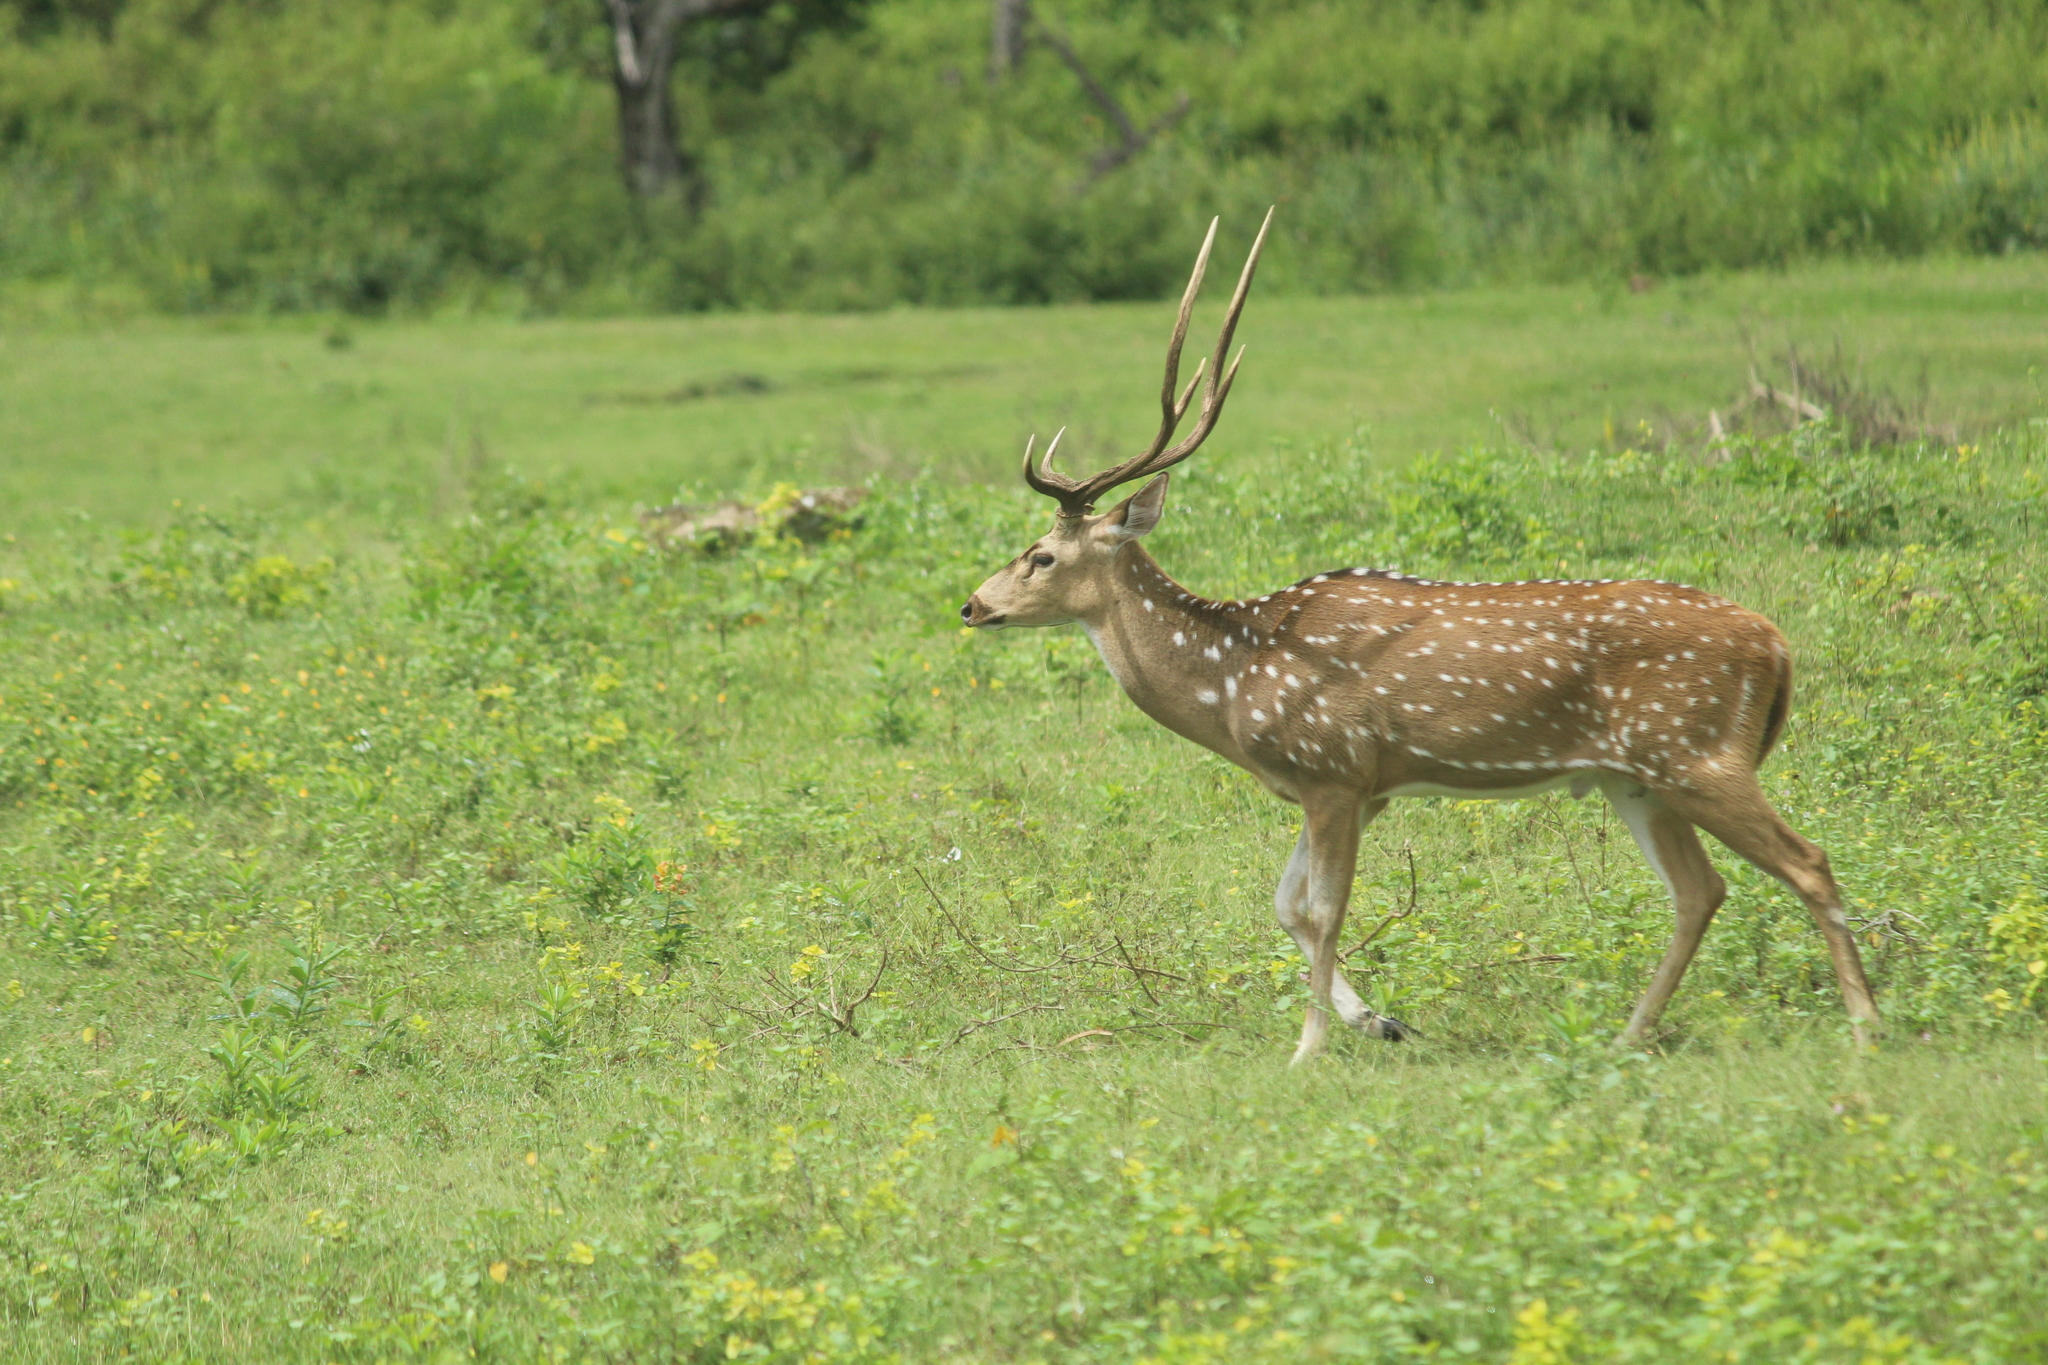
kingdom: Animalia
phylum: Chordata
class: Mammalia
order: Artiodactyla
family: Cervidae
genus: Axis
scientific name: Axis axis
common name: Chital
